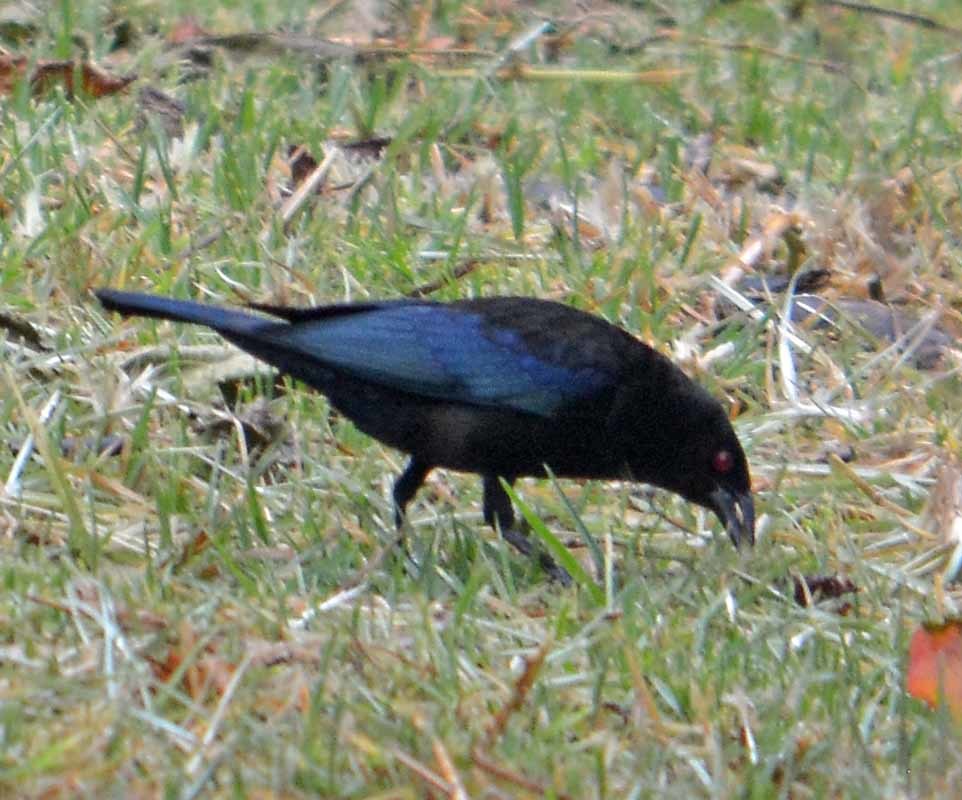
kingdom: Animalia
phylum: Chordata
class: Aves
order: Passeriformes
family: Icteridae
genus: Molothrus
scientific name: Molothrus aeneus
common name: Bronzed cowbird
